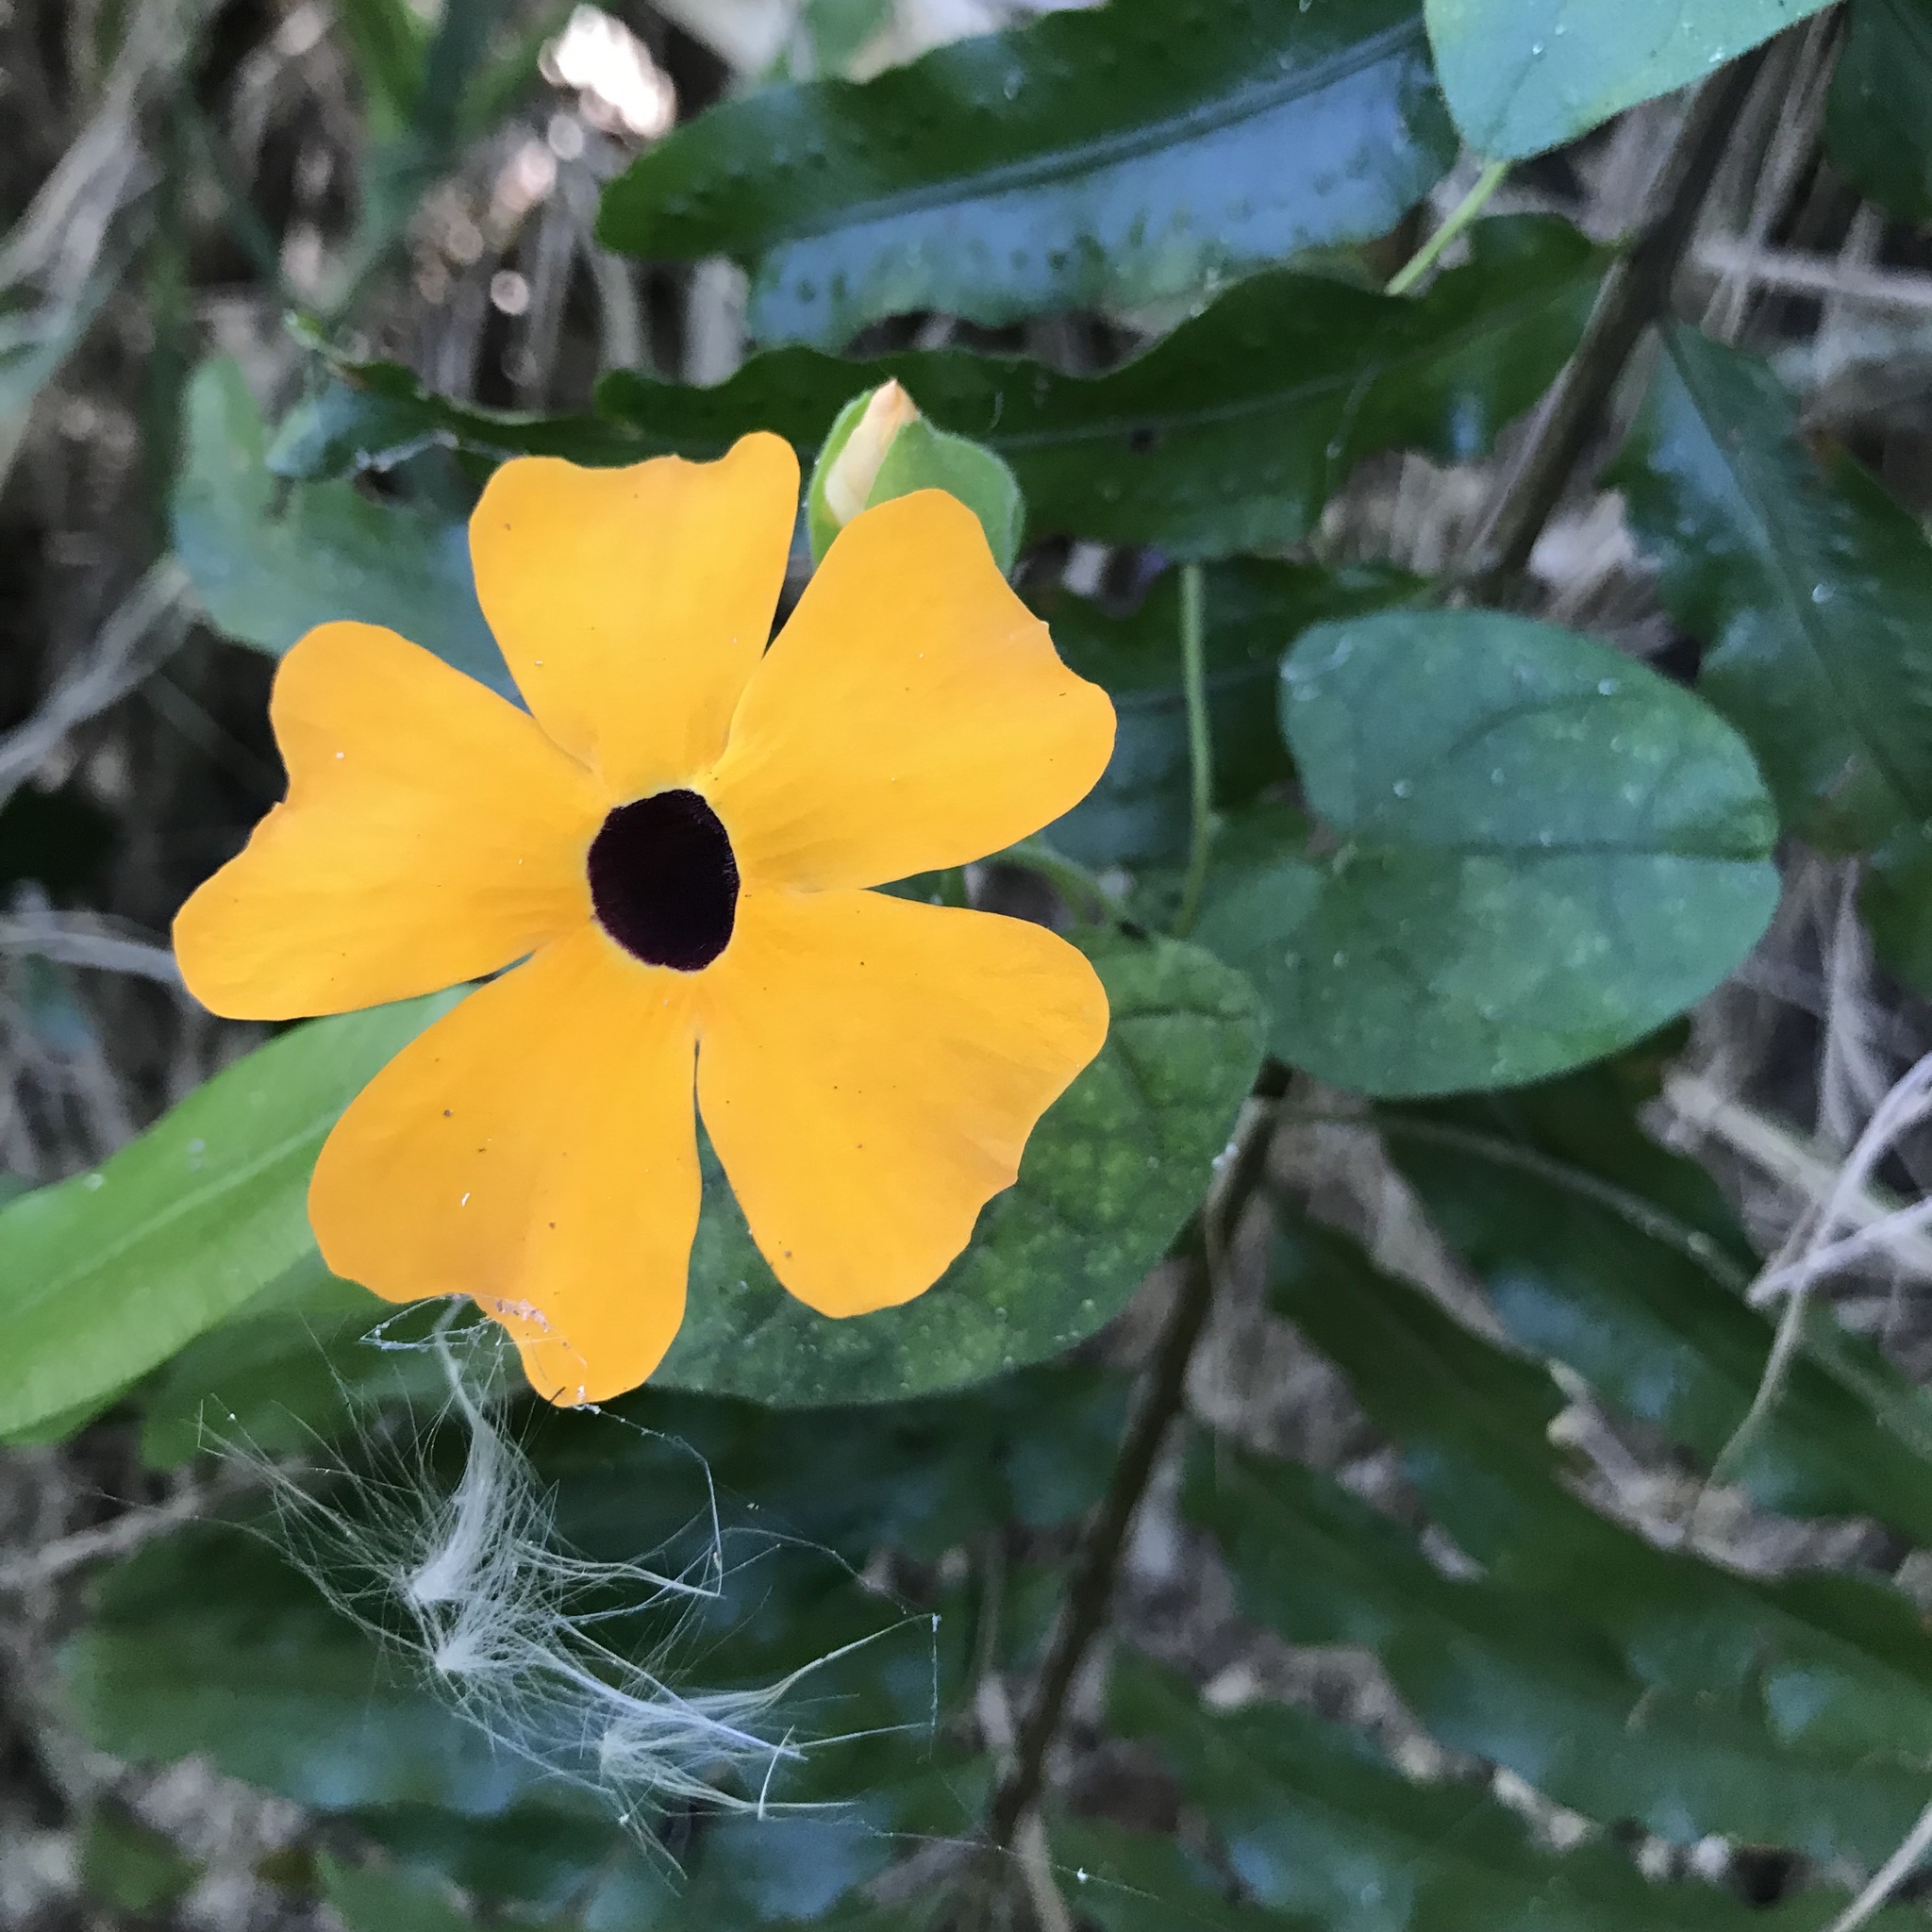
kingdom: Plantae
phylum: Tracheophyta
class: Magnoliopsida
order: Lamiales
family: Acanthaceae
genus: Thunbergia
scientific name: Thunbergia alata
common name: Blackeyed susan vine
